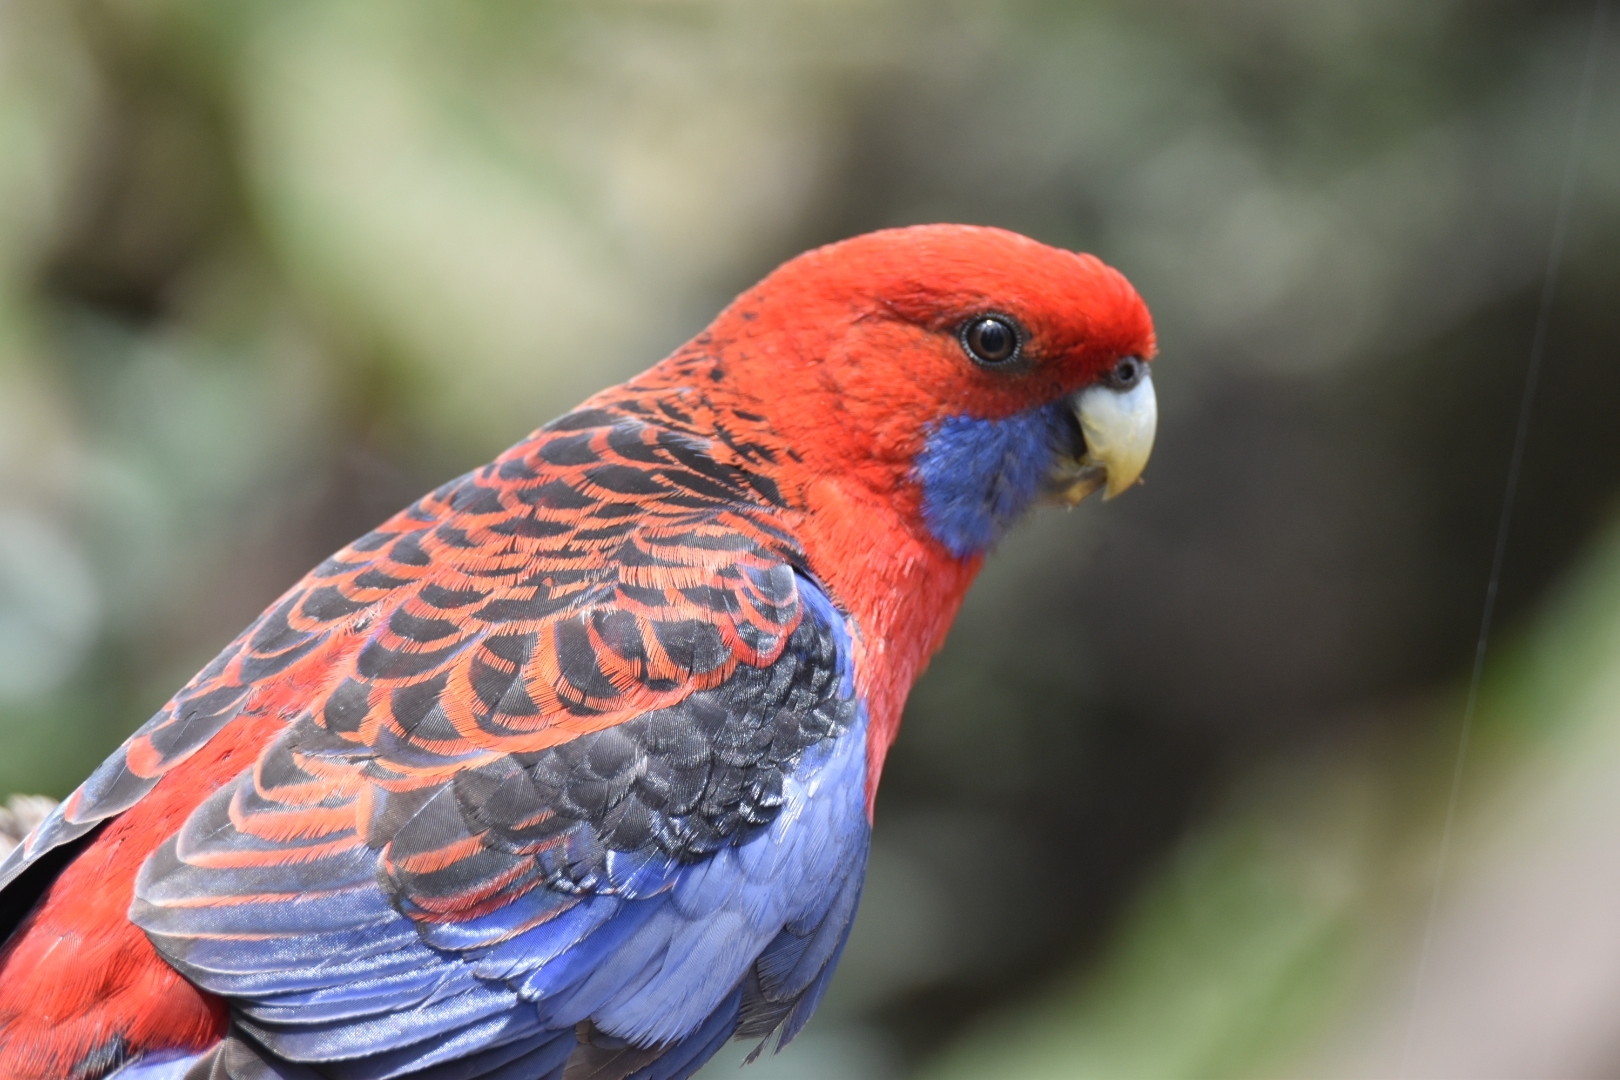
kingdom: Animalia
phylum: Chordata
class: Aves
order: Psittaciformes
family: Psittacidae
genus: Platycercus
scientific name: Platycercus elegans
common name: Crimson rosella
